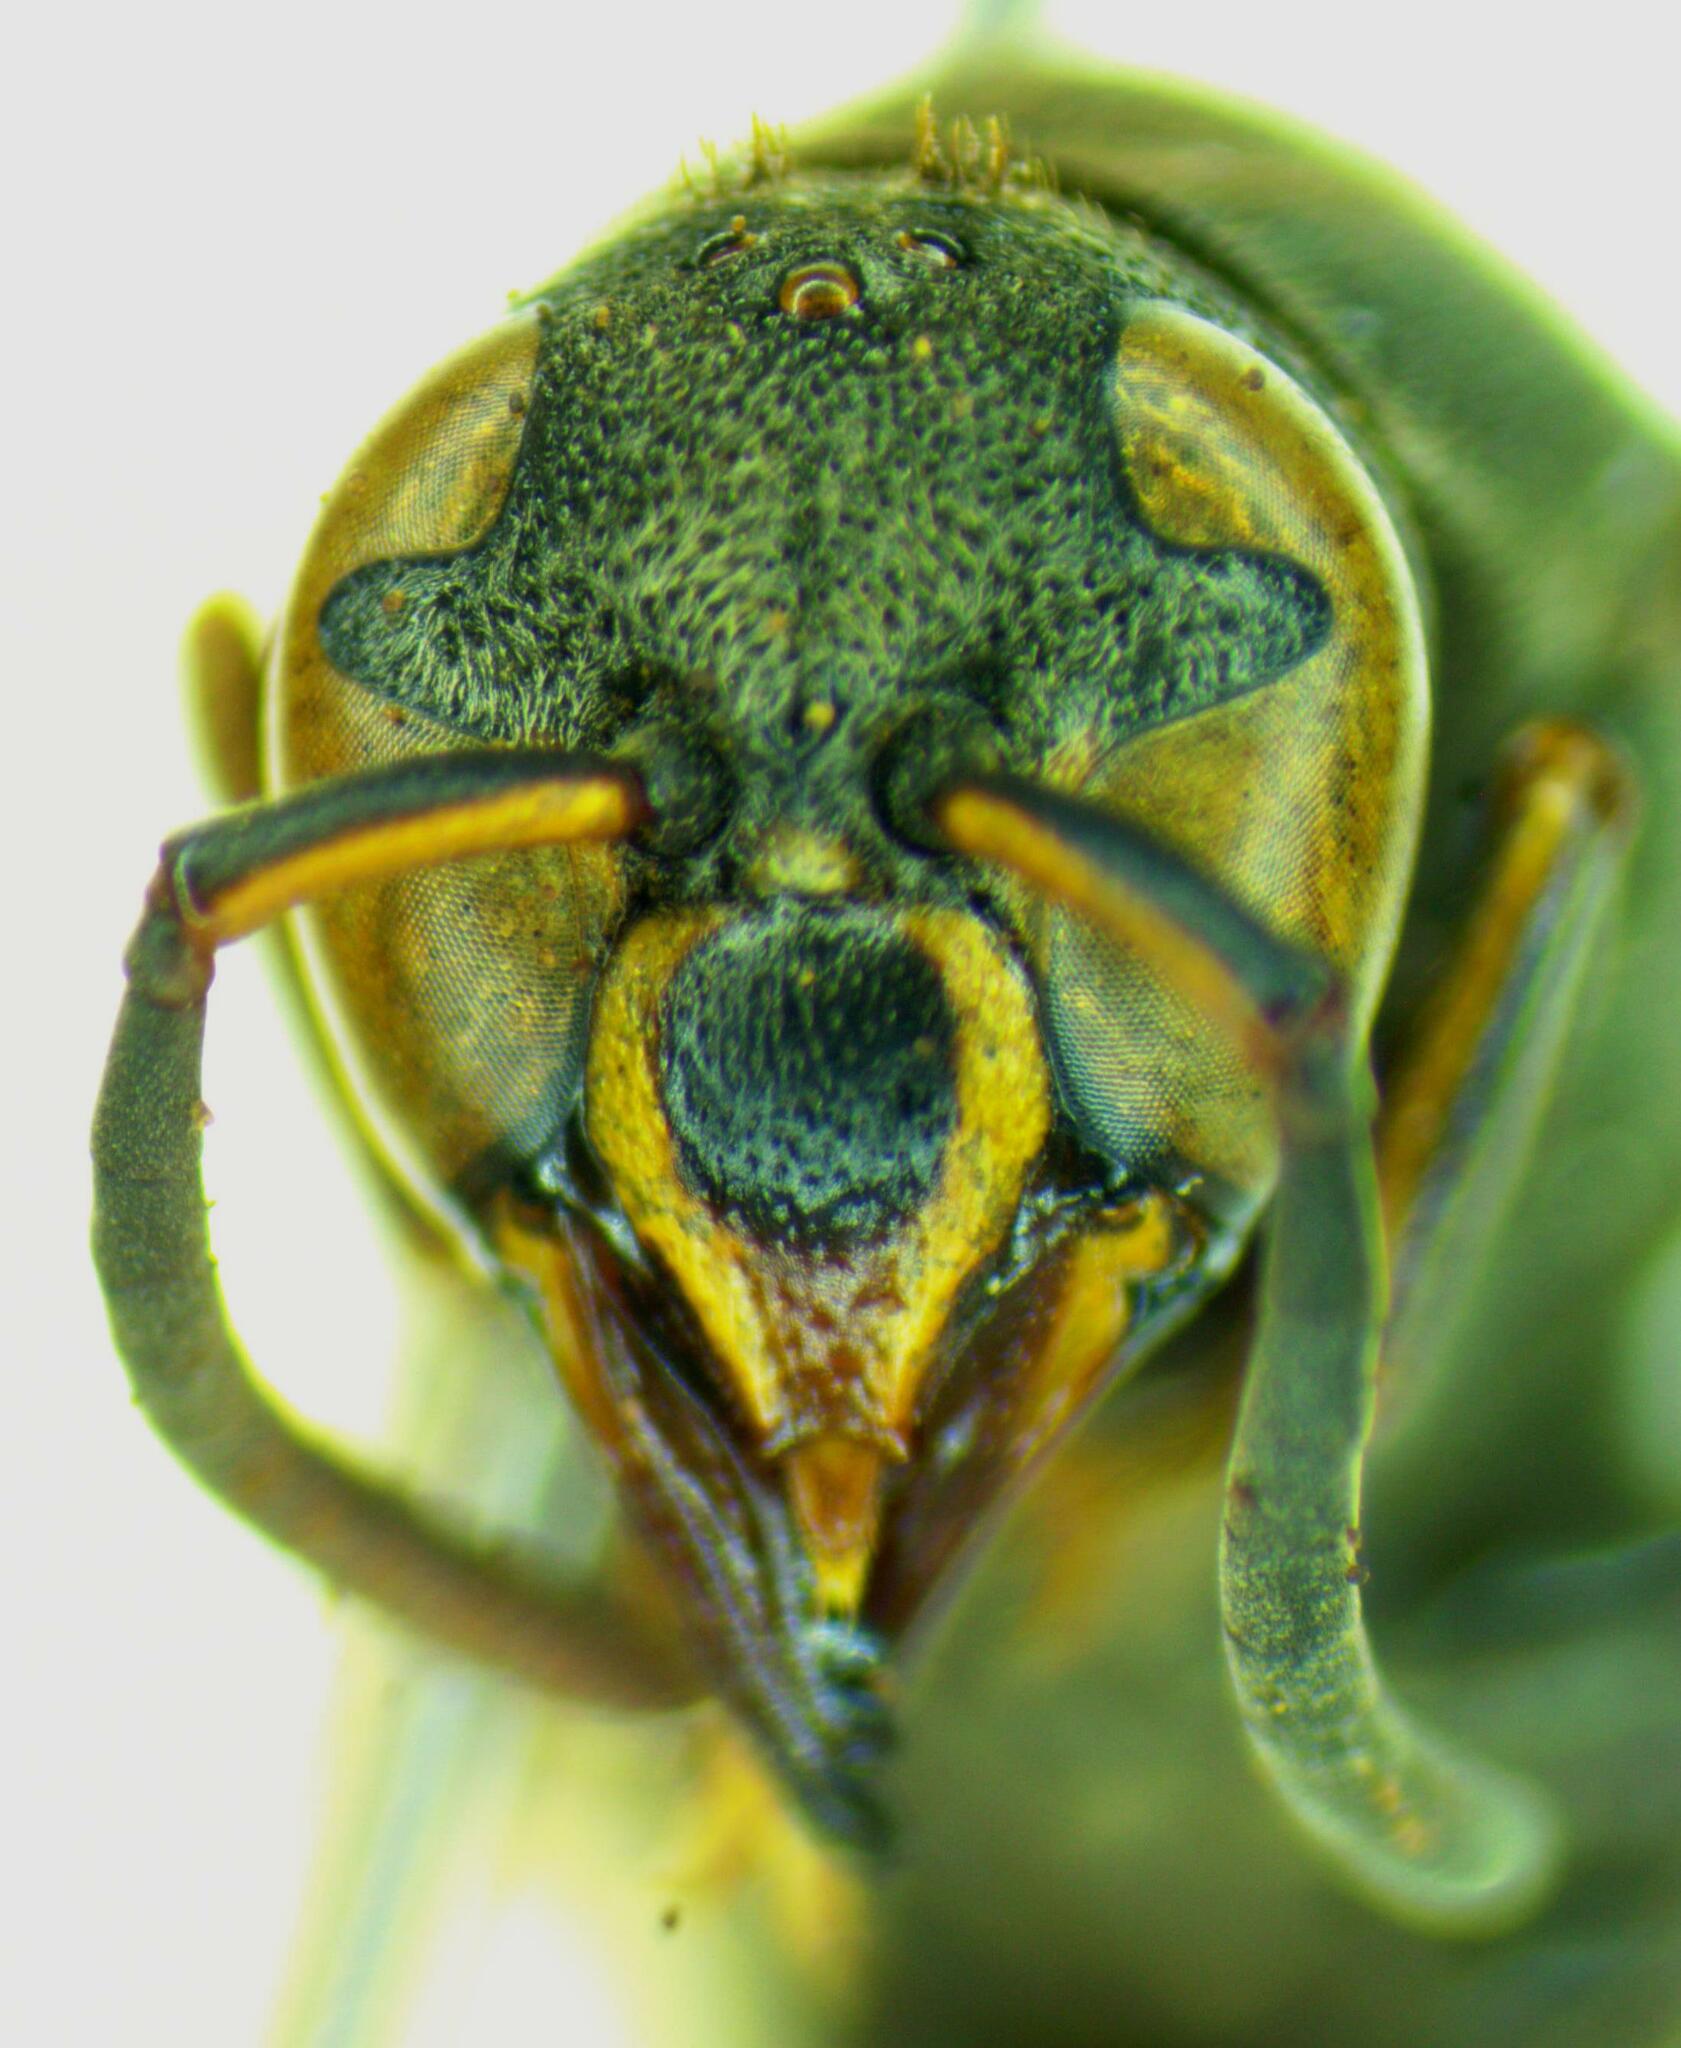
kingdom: Animalia
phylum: Arthropoda
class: Insecta
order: Hymenoptera
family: Eumenidae
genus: Pseudodynerus
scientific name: Pseudodynerus subapicalis
